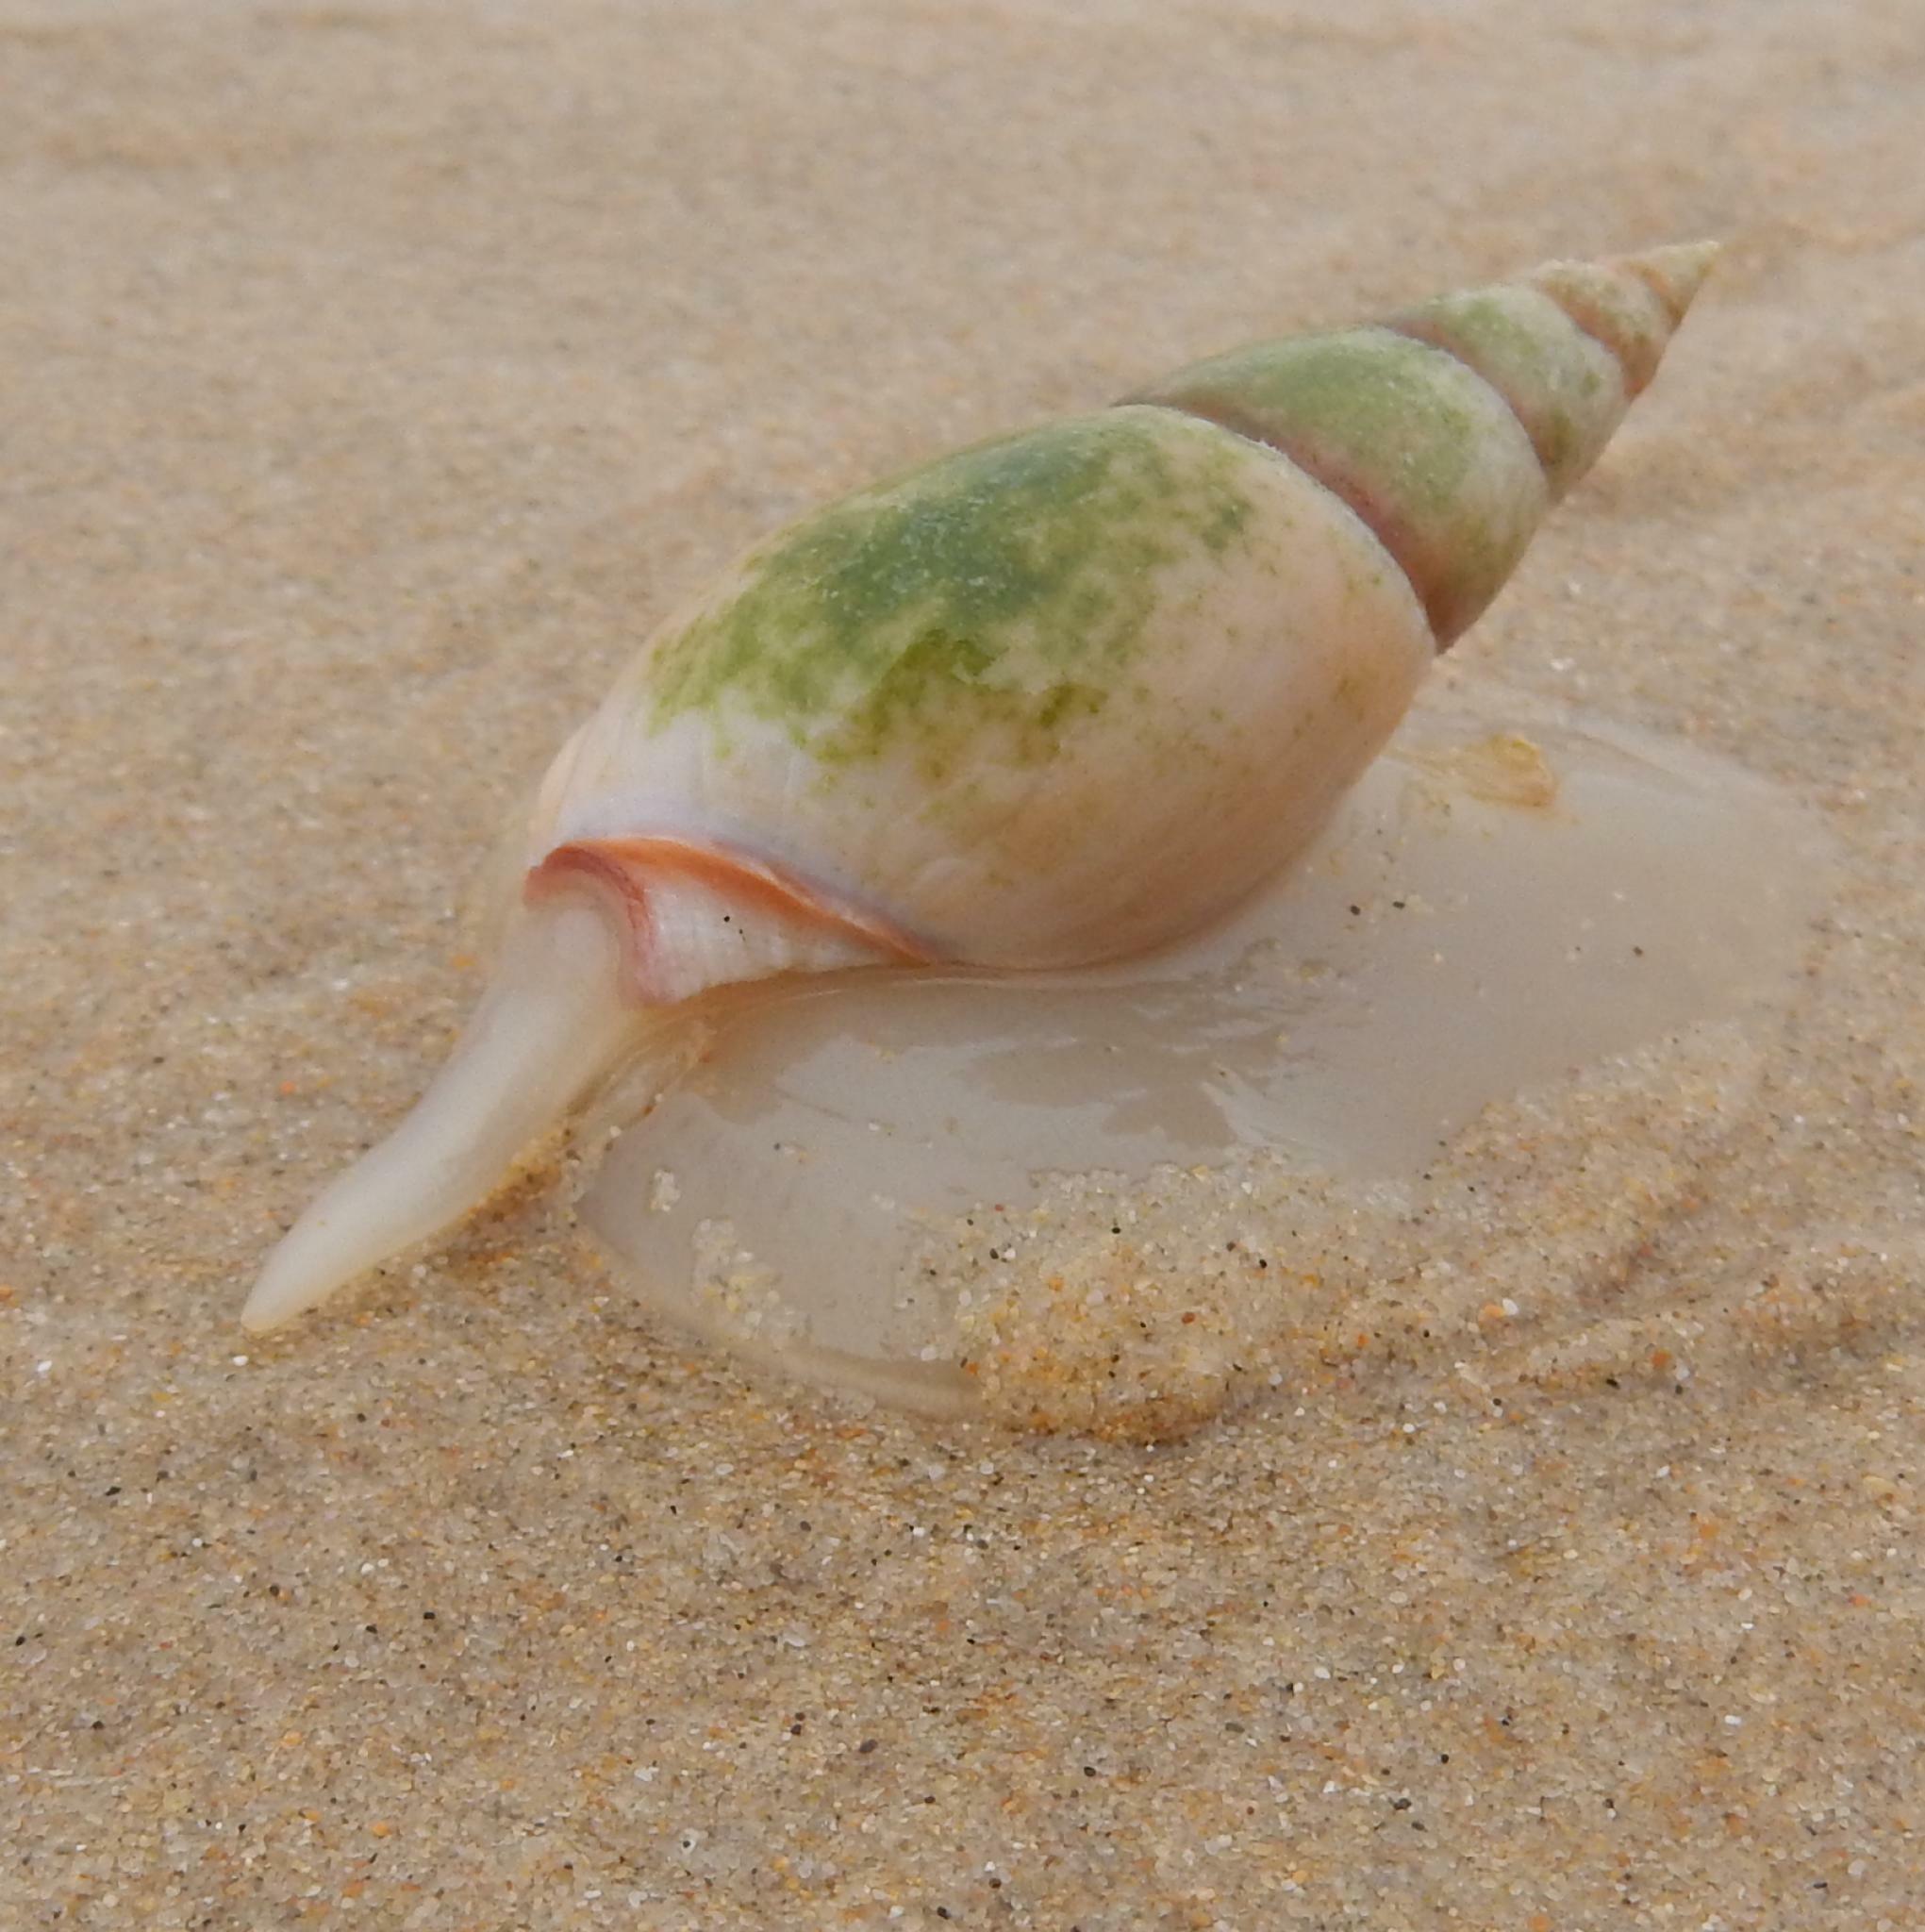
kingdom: Animalia
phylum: Mollusca
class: Gastropoda
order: Neogastropoda
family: Nassariidae
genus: Bullia
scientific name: Bullia rhodostoma
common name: Smooth plough shell
